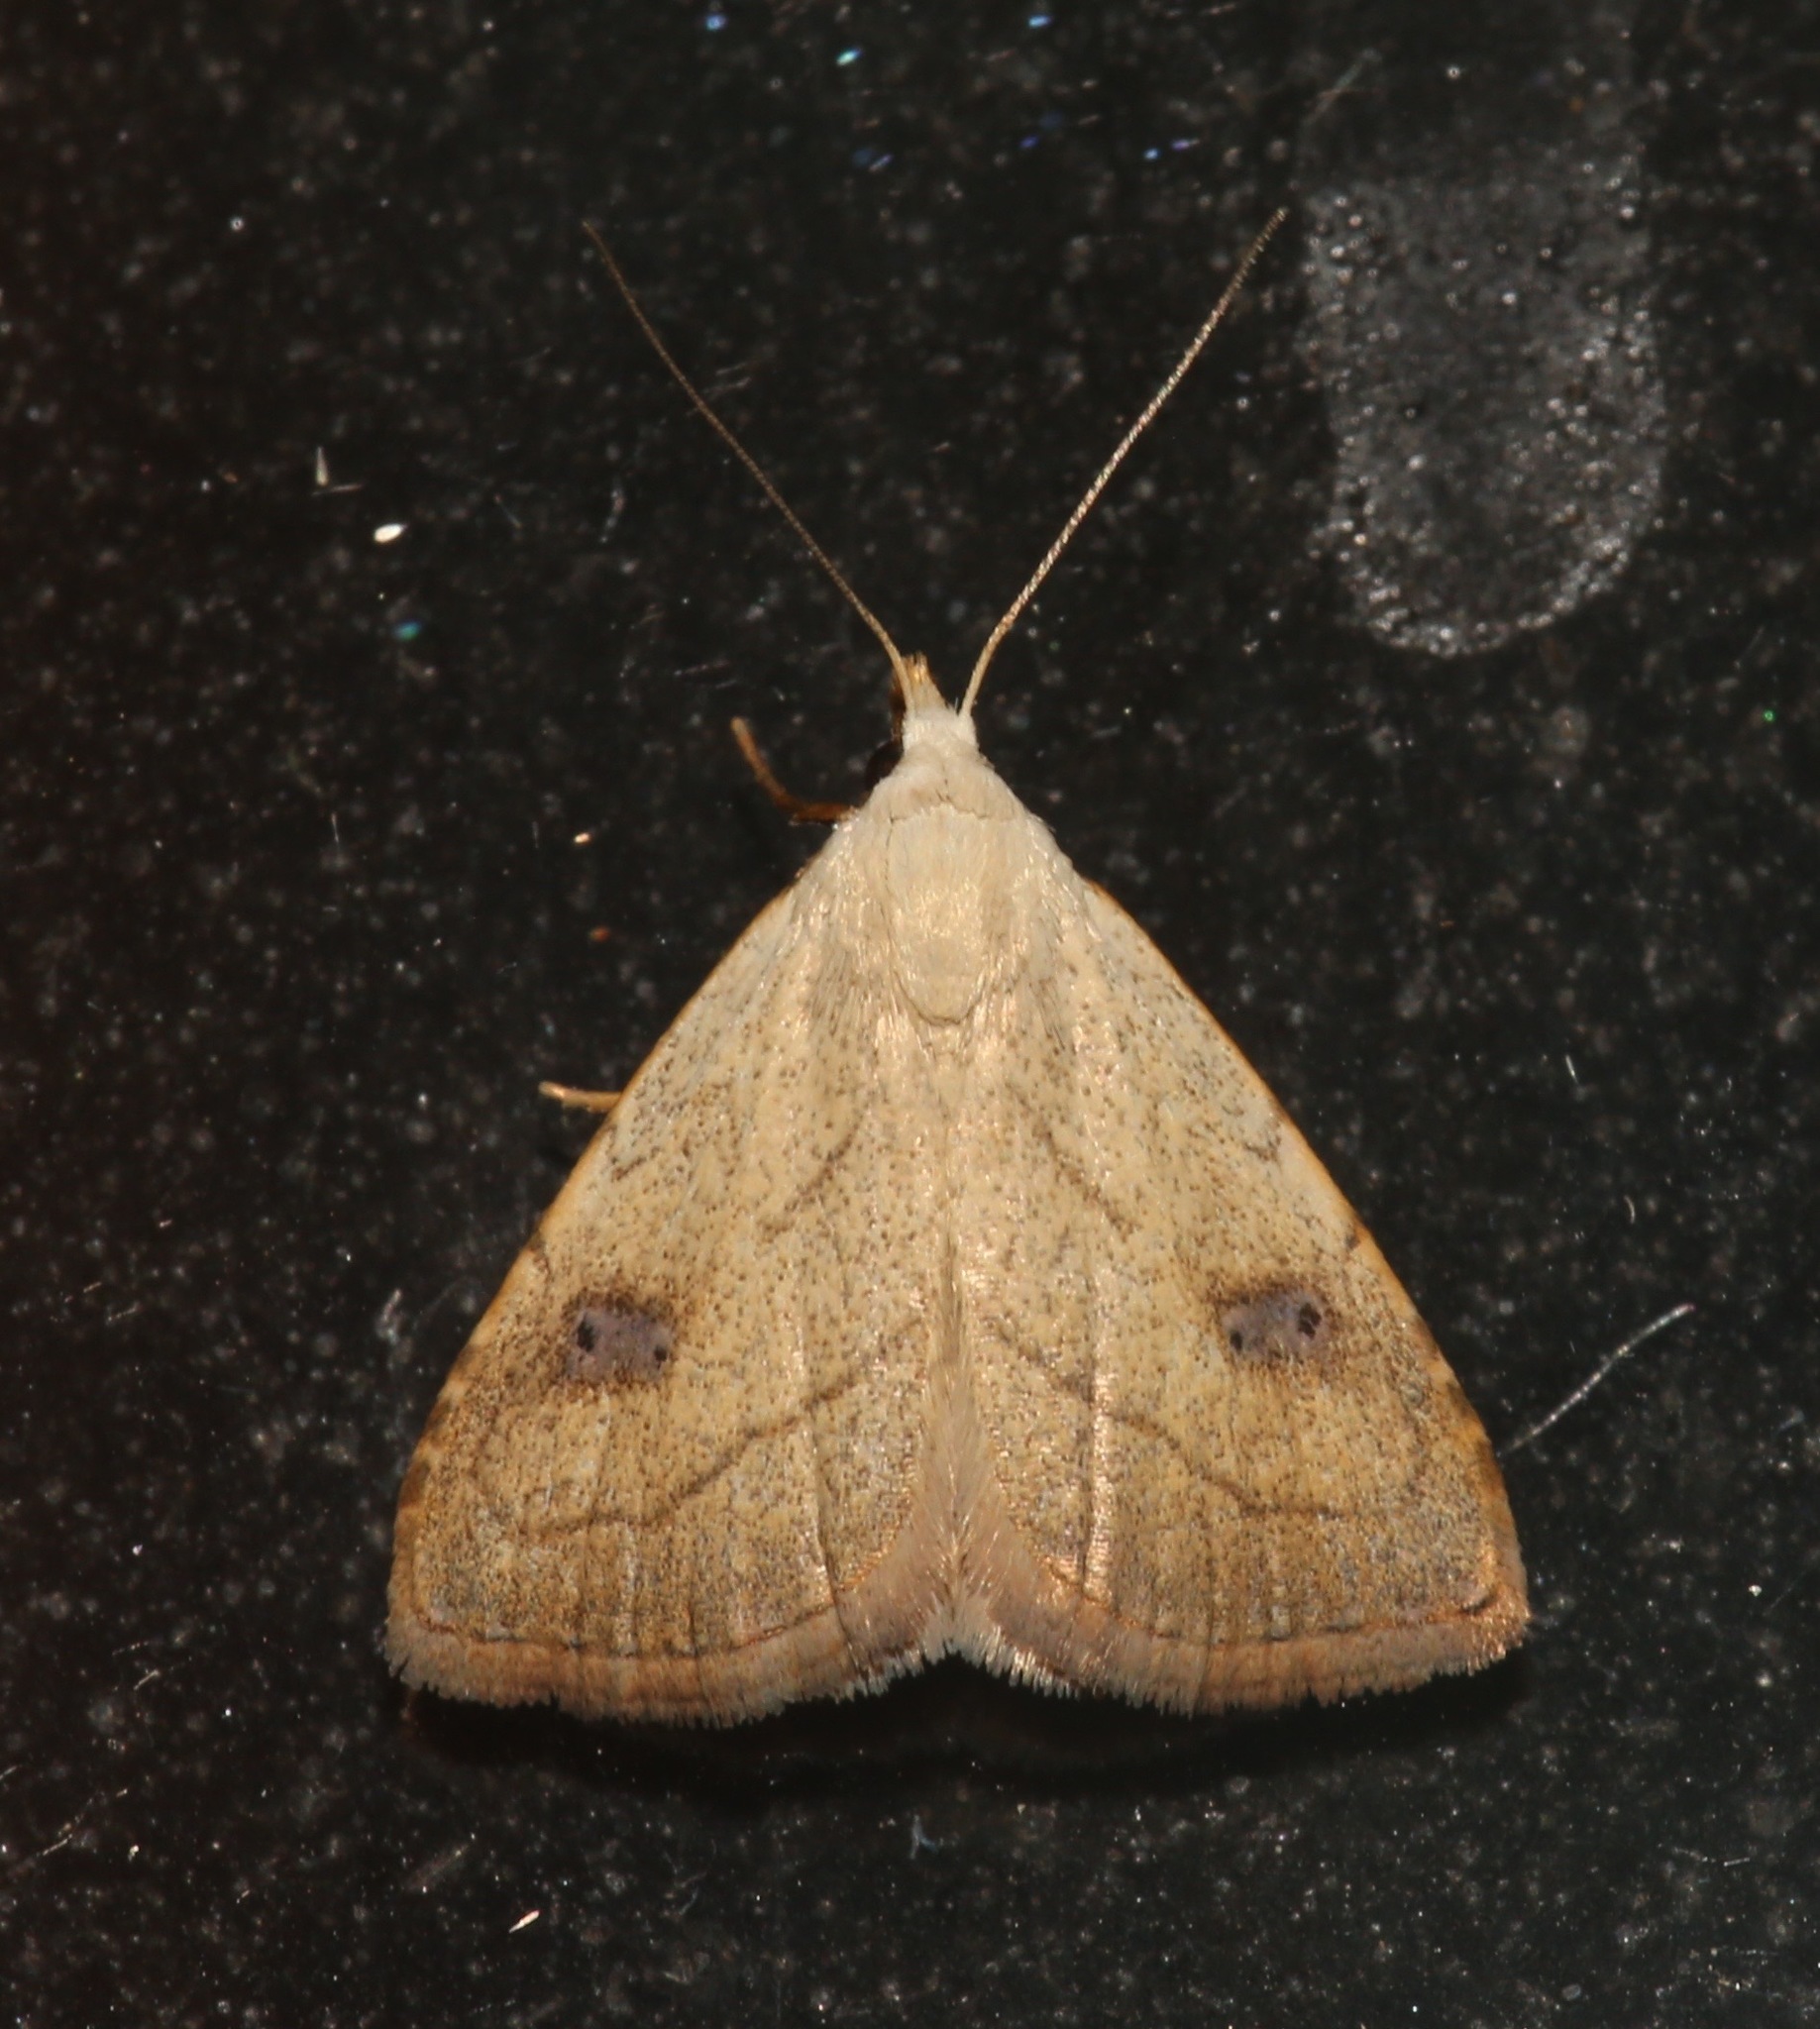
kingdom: Animalia
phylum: Arthropoda
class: Insecta
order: Lepidoptera
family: Erebidae
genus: Rivula
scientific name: Rivula propinqualis
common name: Spotted grass moth
